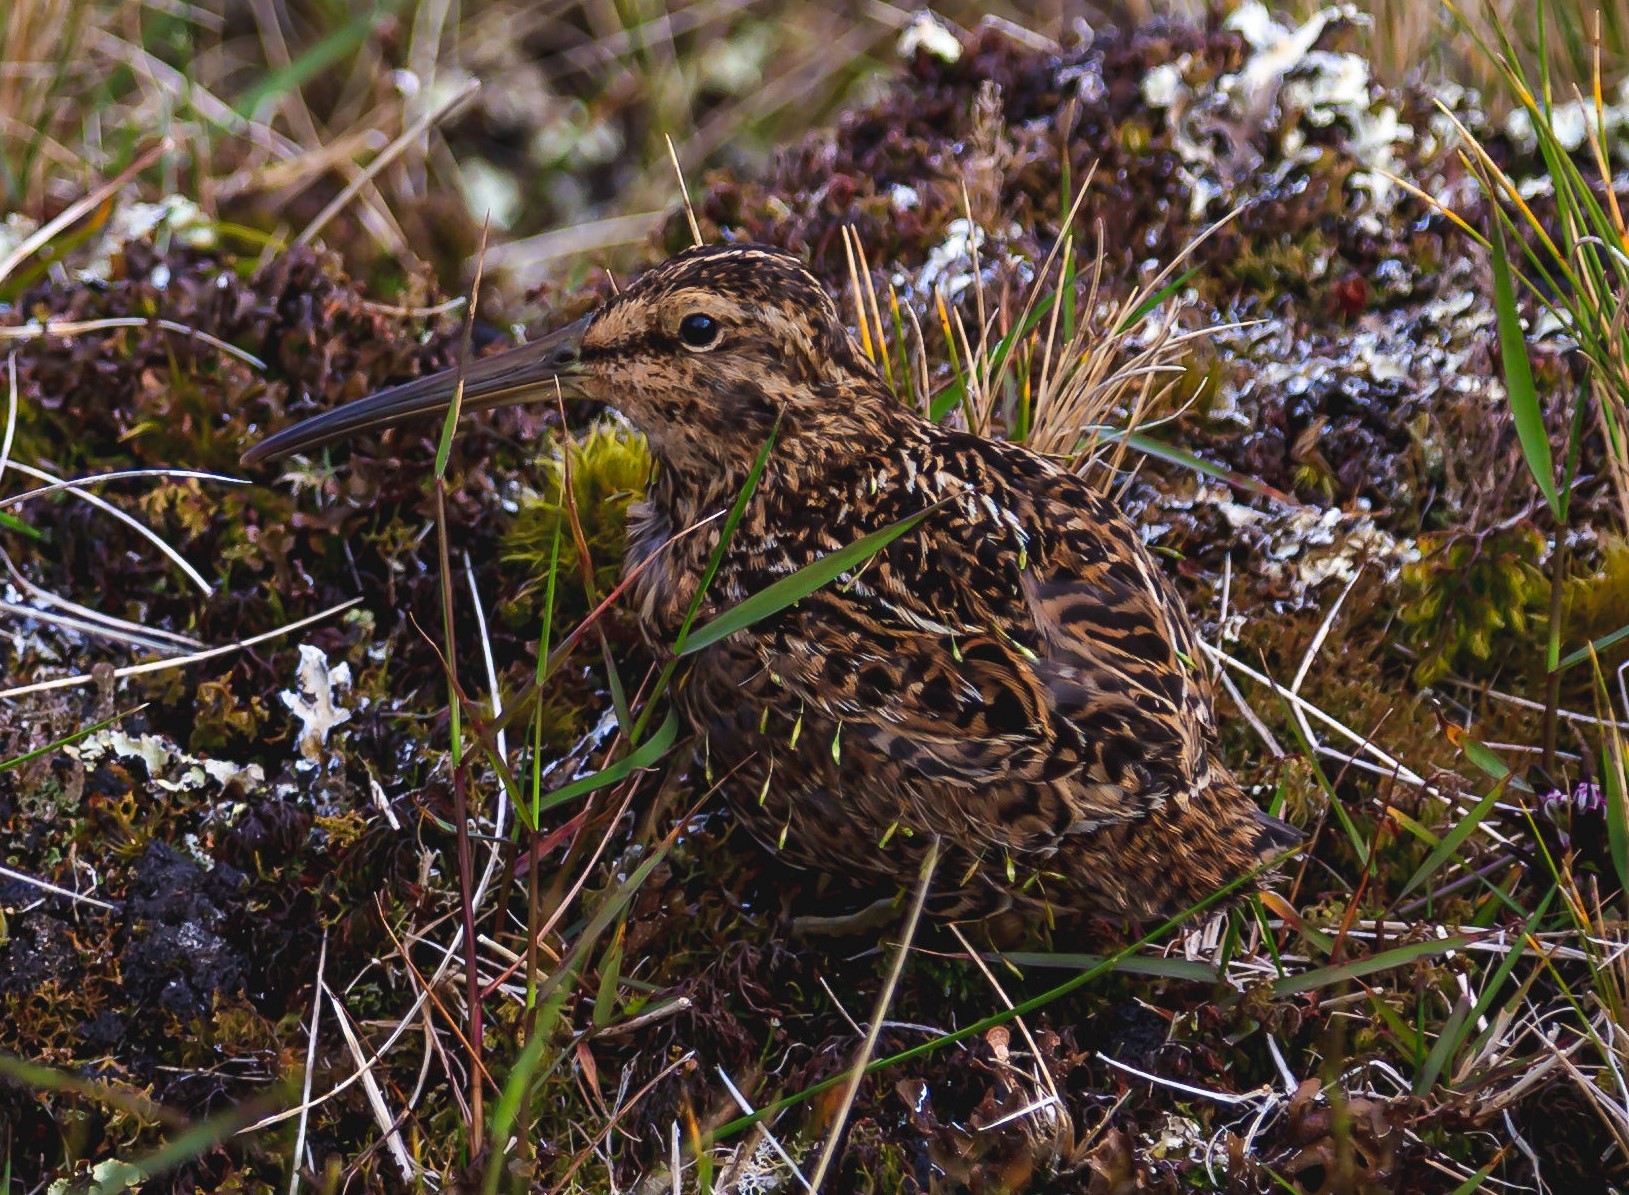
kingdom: Animalia
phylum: Chordata
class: Aves
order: Charadriiformes
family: Scolopacidae
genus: Coenocorypha
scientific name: Coenocorypha aucklandica
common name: Subantarctic snipe
